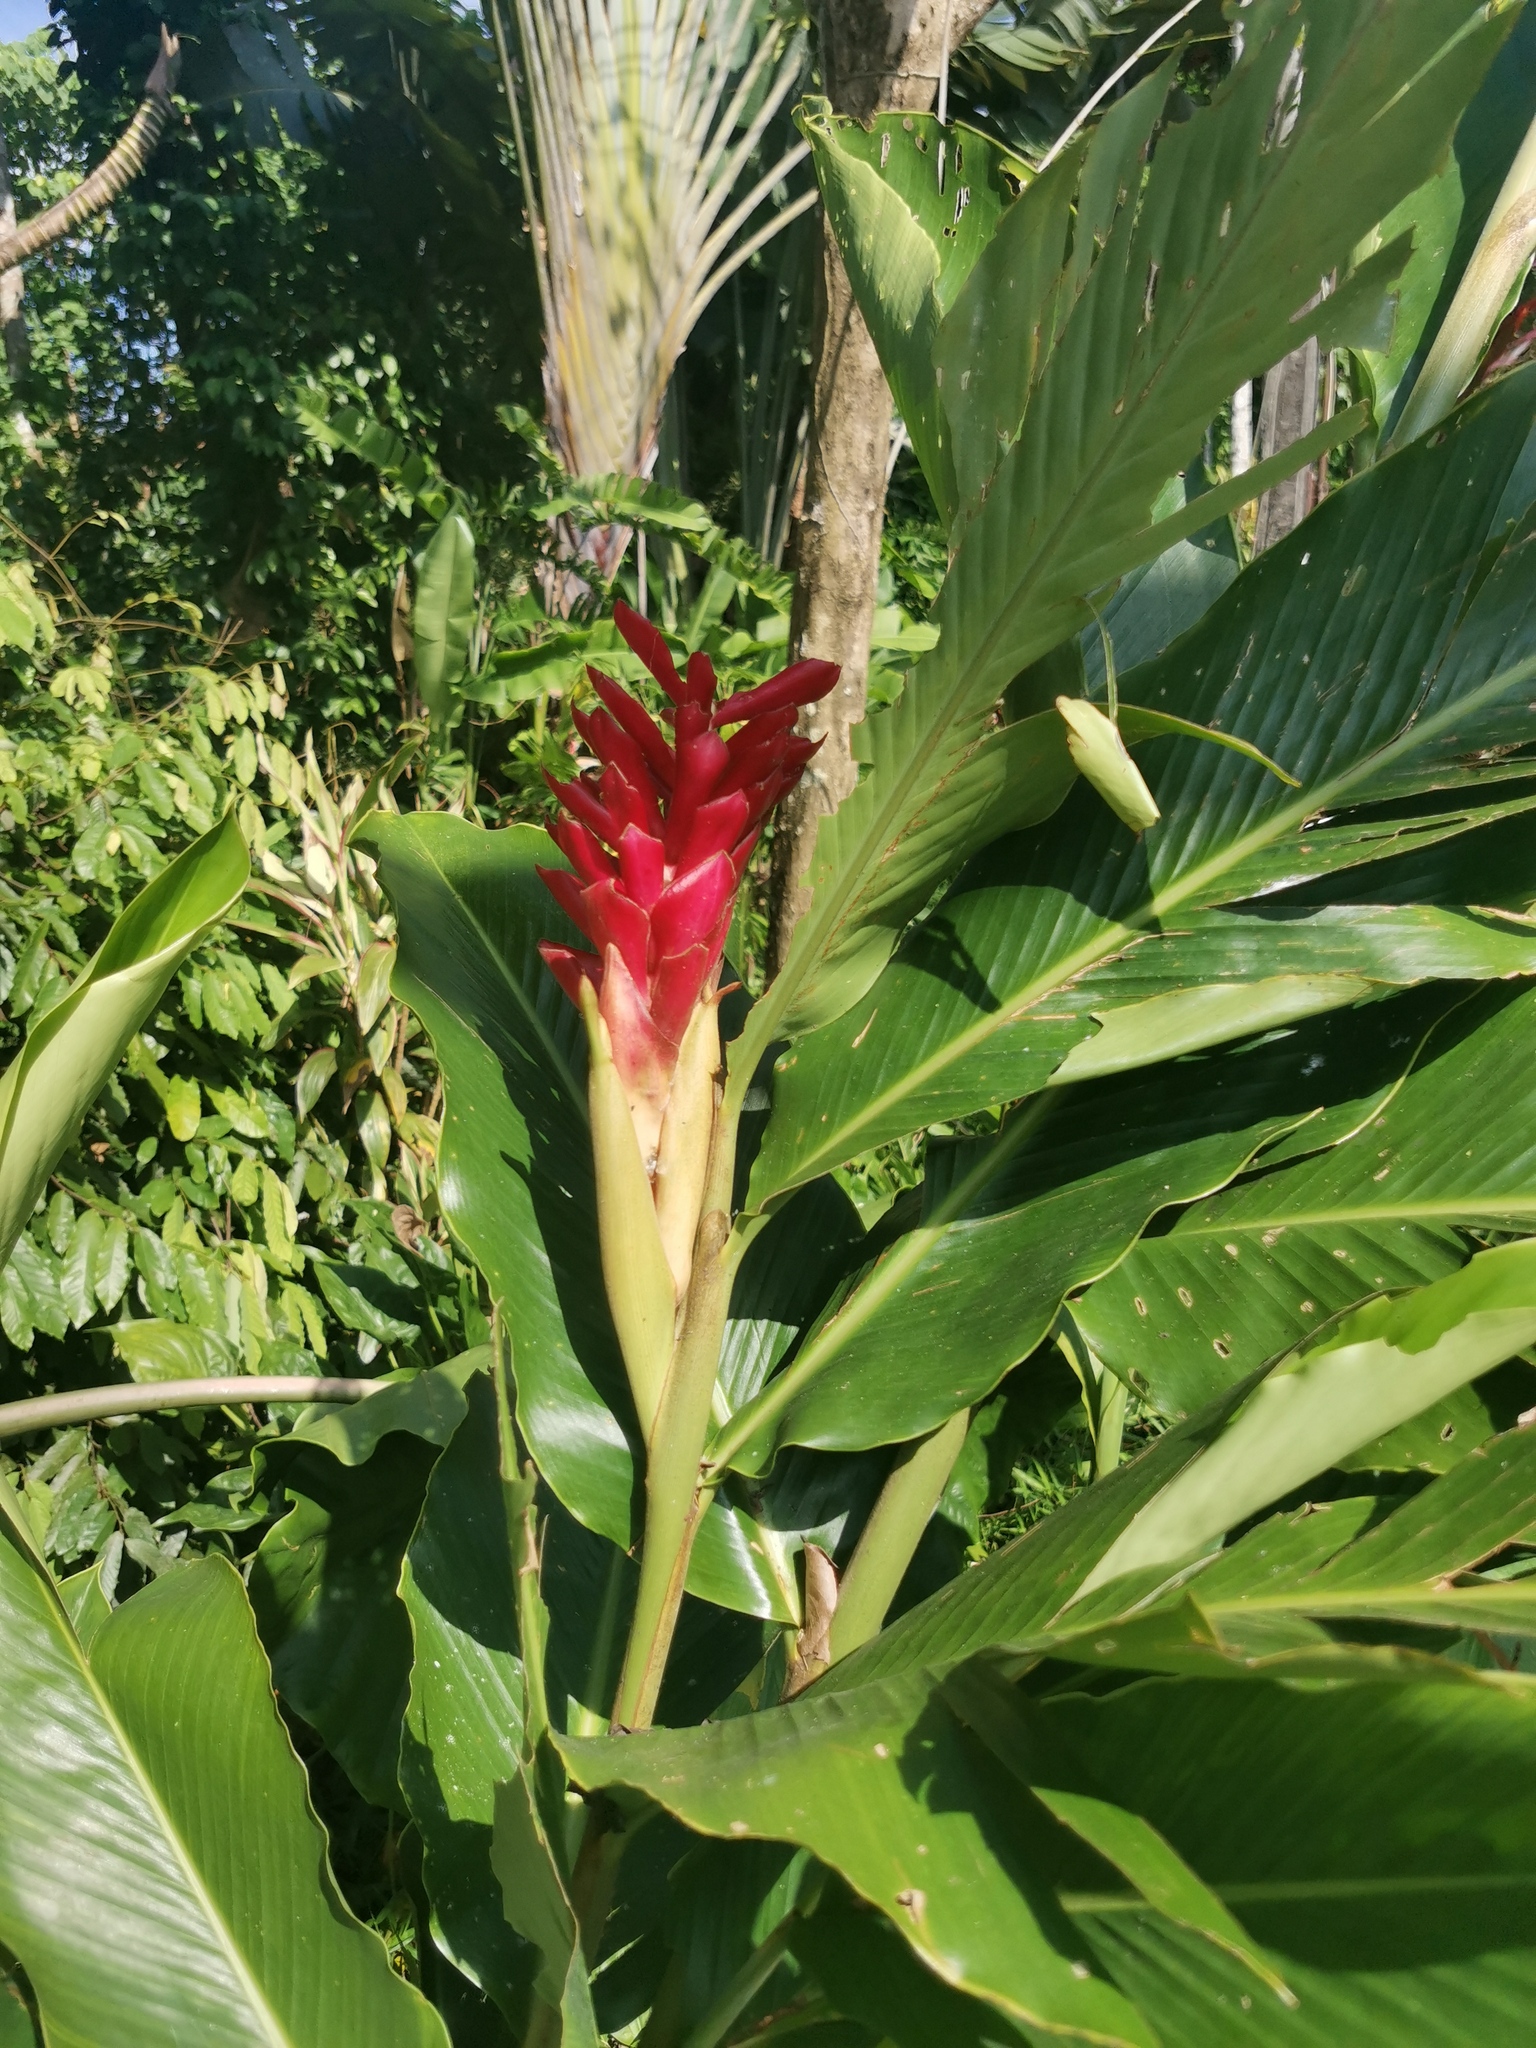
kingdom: Plantae
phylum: Tracheophyta
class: Liliopsida
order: Zingiberales
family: Zingiberaceae
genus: Alpinia
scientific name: Alpinia purpurata
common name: Red ginger
